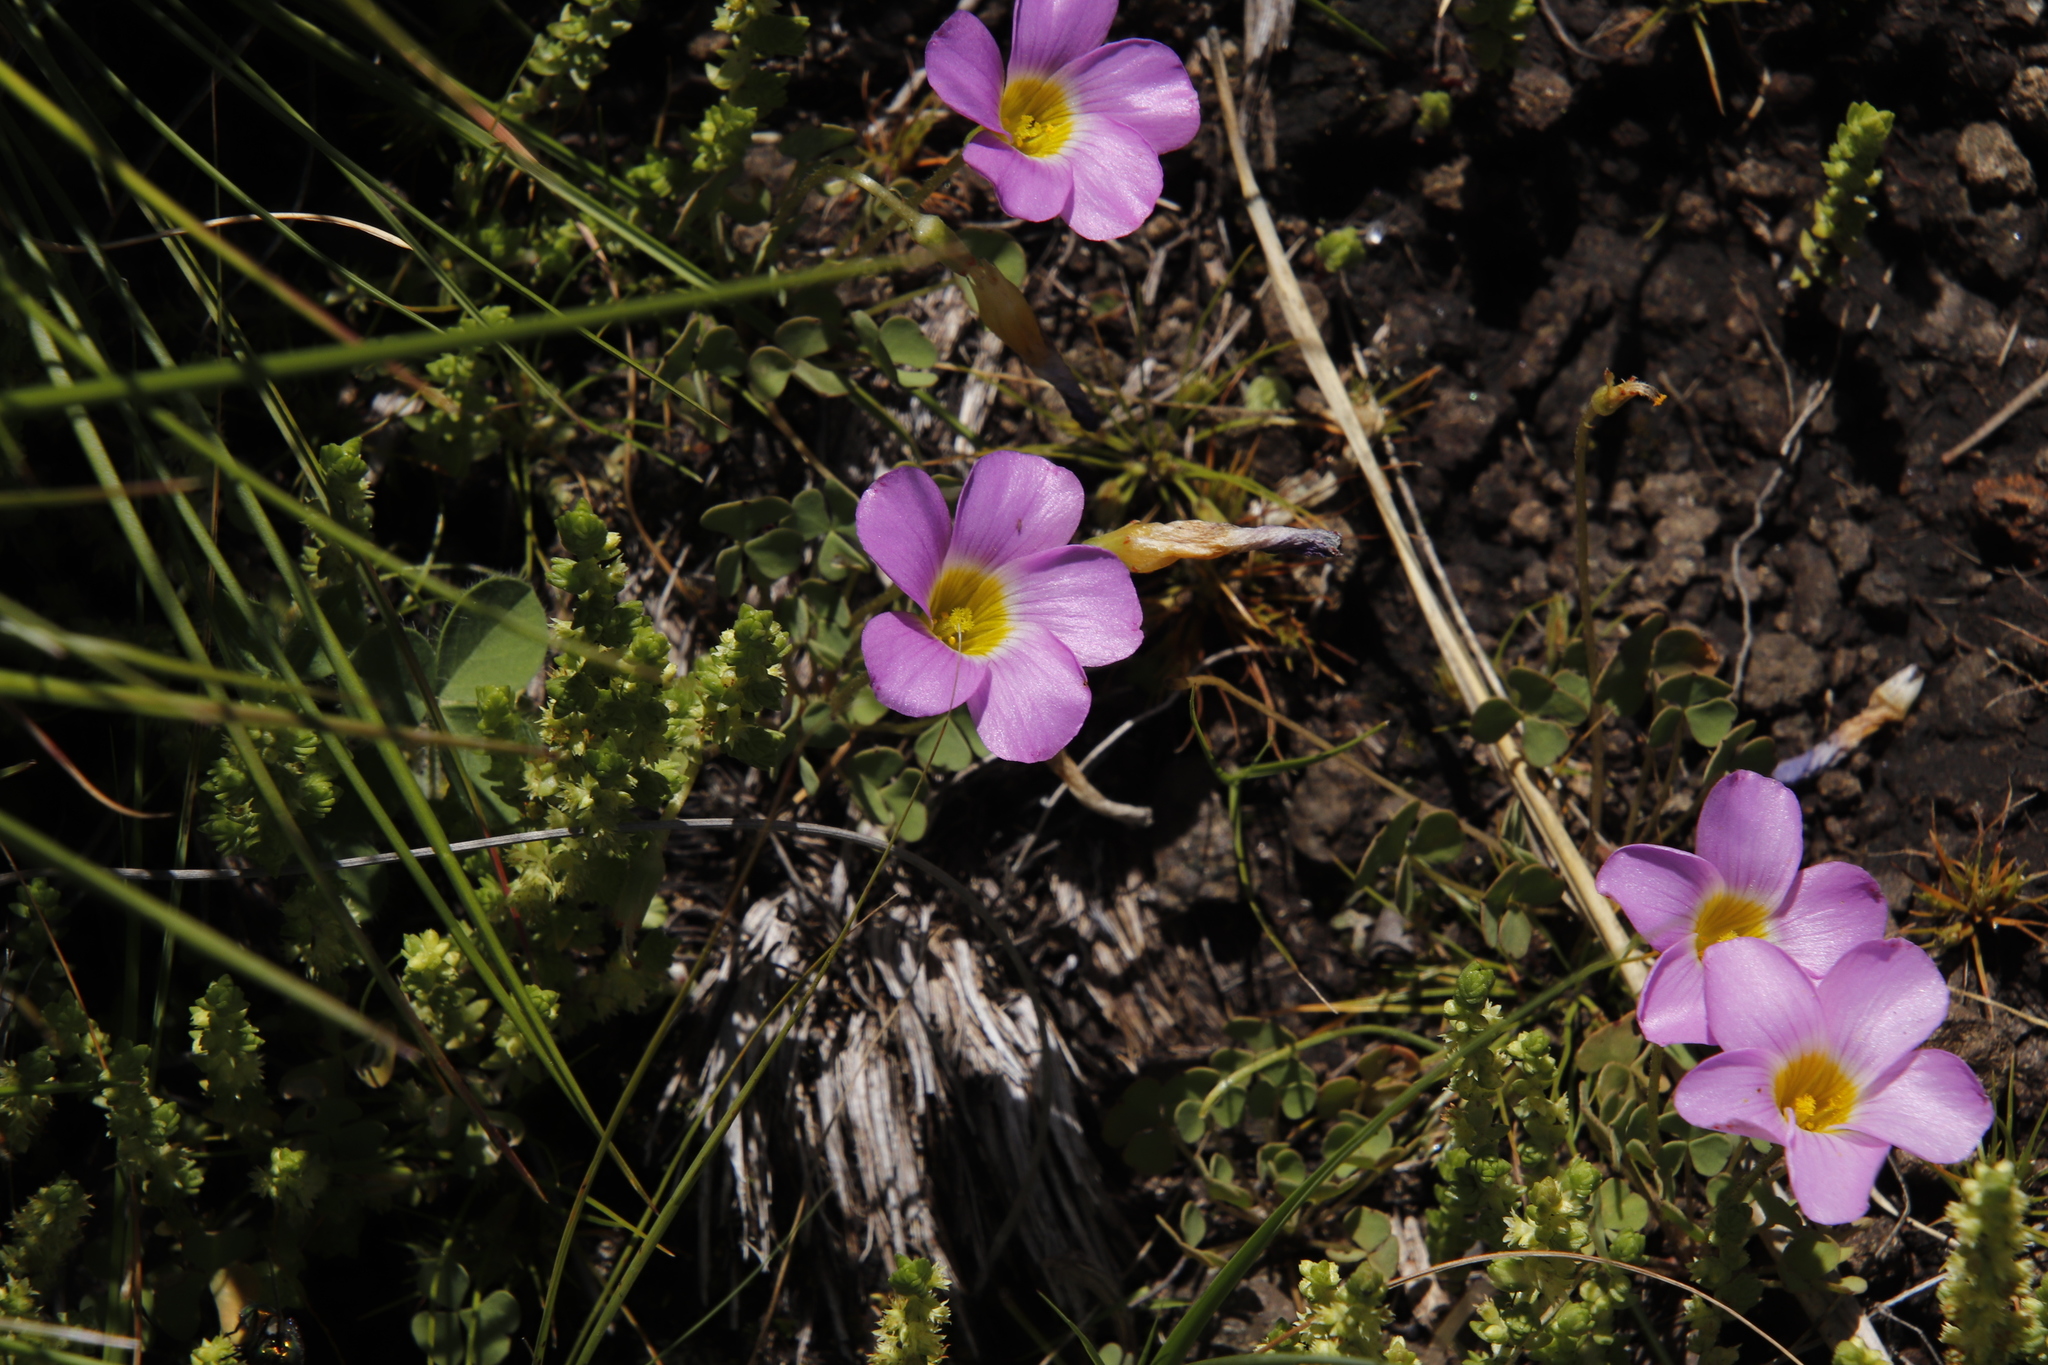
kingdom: Plantae
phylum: Tracheophyta
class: Magnoliopsida
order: Oxalidales
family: Oxalidaceae
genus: Oxalis
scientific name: Oxalis obliquifolia
